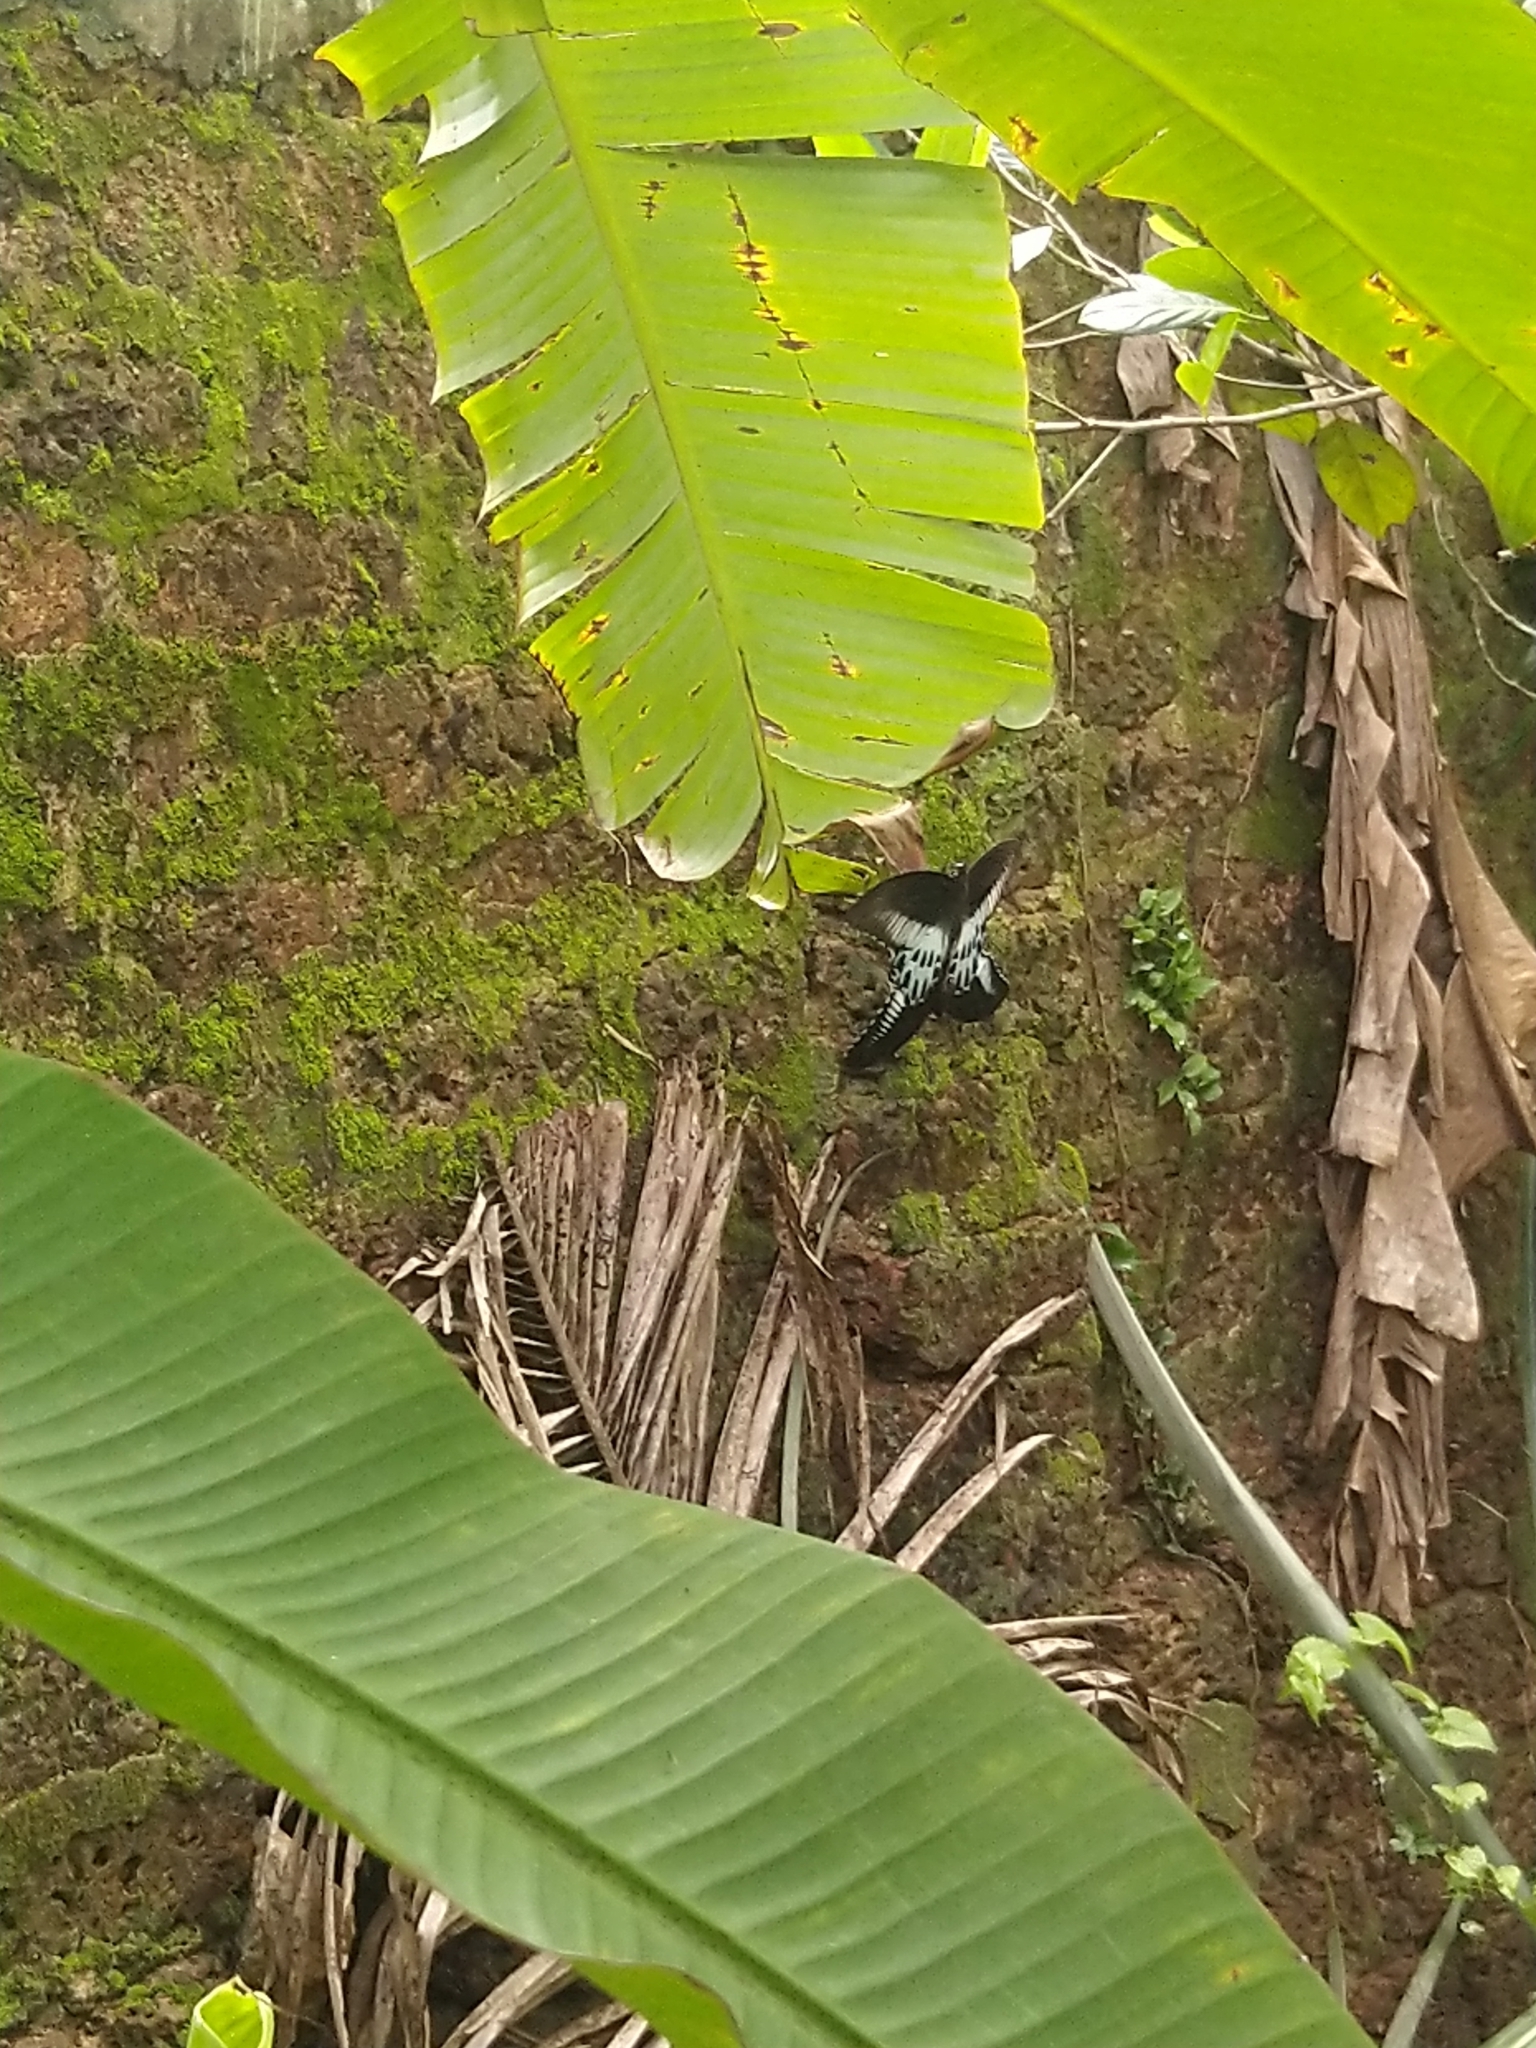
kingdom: Animalia
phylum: Arthropoda
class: Insecta
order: Lepidoptera
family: Papilionidae
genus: Papilio
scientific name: Papilio memnon
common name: Great mormon
